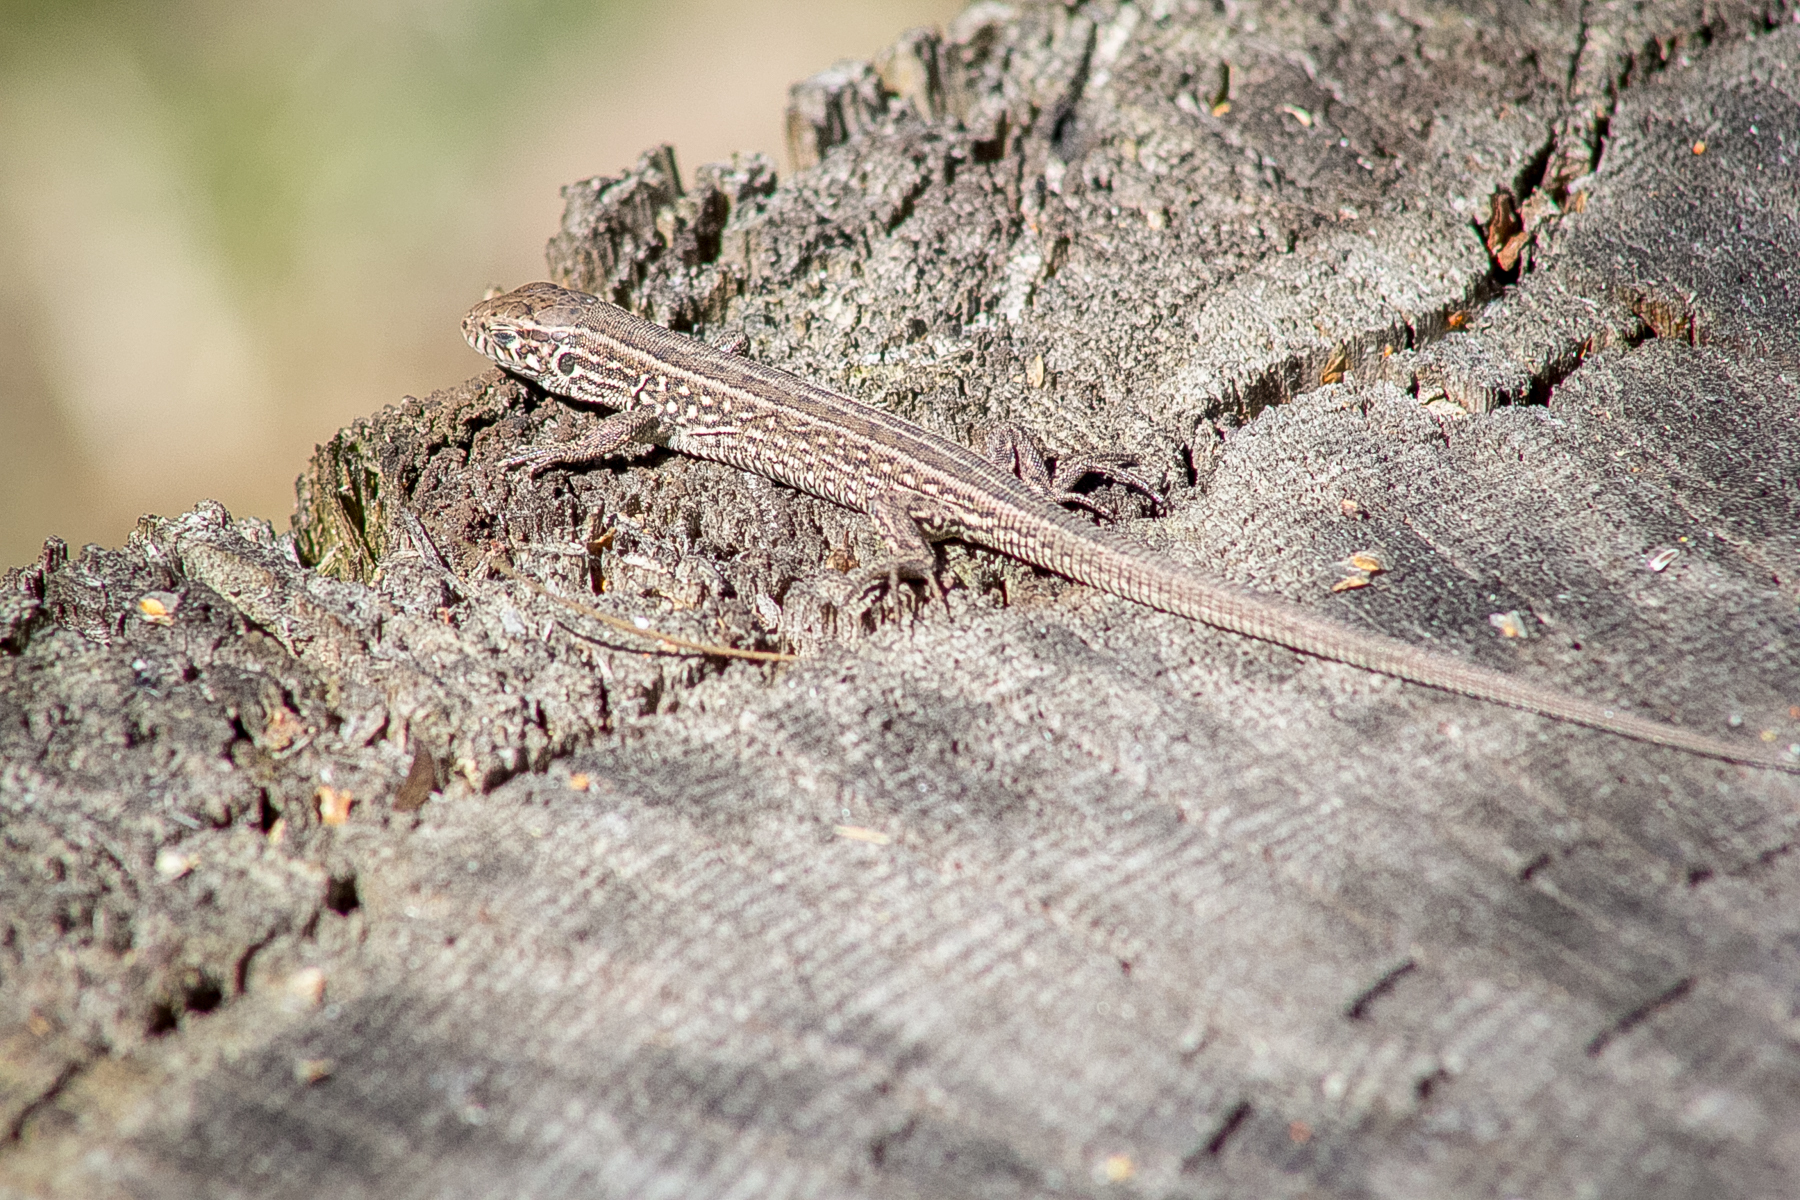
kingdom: Animalia
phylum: Chordata
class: Squamata
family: Lacertidae
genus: Lacerta
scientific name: Lacerta agilis
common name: Sand lizard
